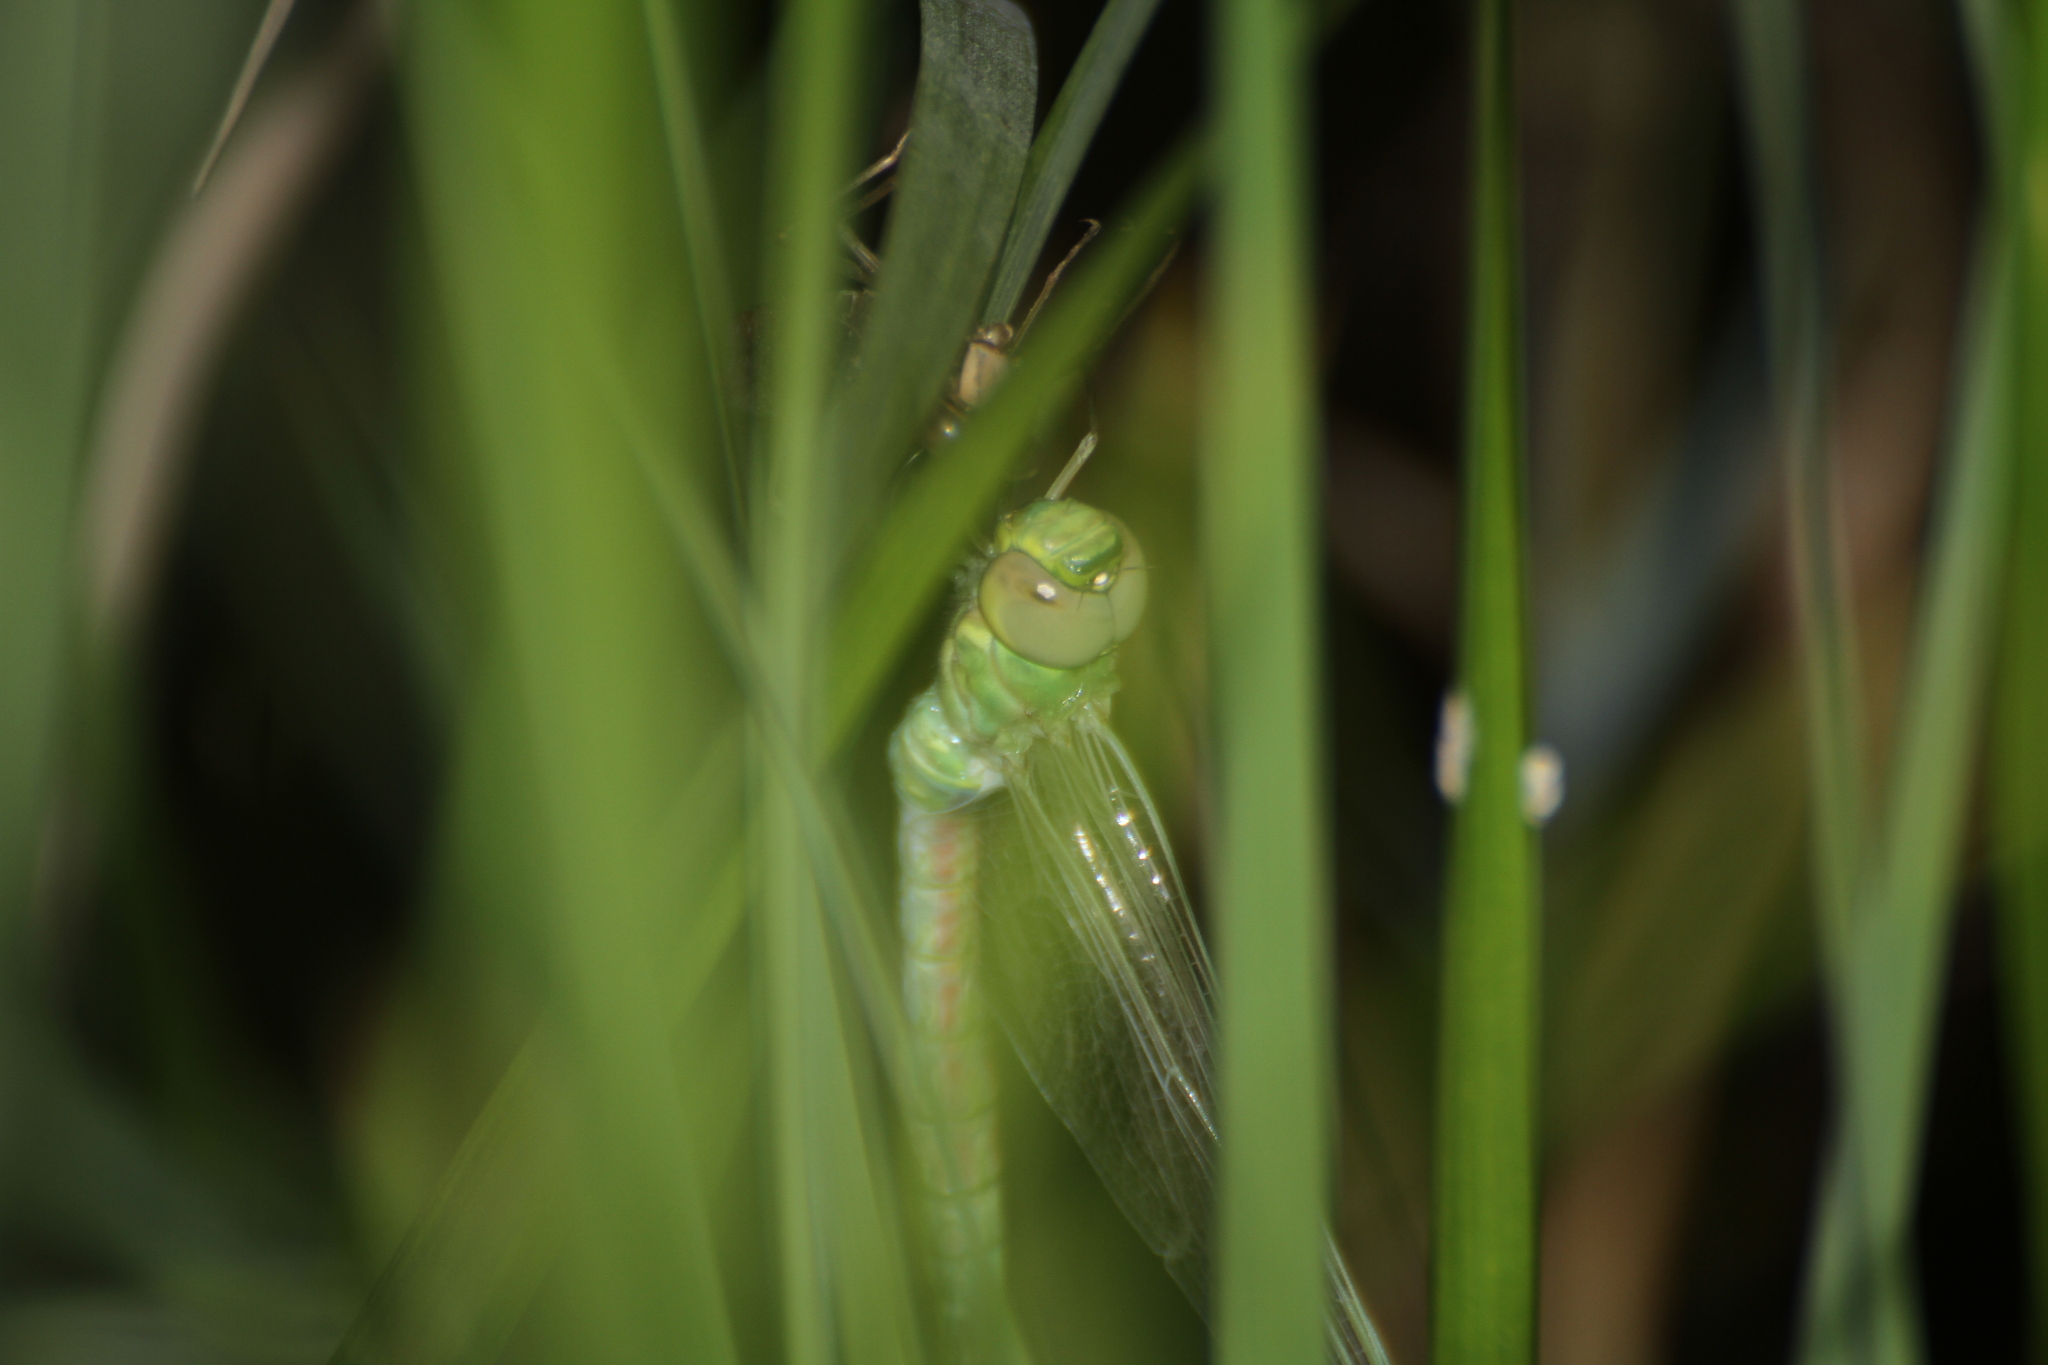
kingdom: Animalia
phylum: Arthropoda
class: Insecta
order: Odonata
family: Aeshnidae
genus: Anax
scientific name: Anax imperator
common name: Emperor dragonfly
